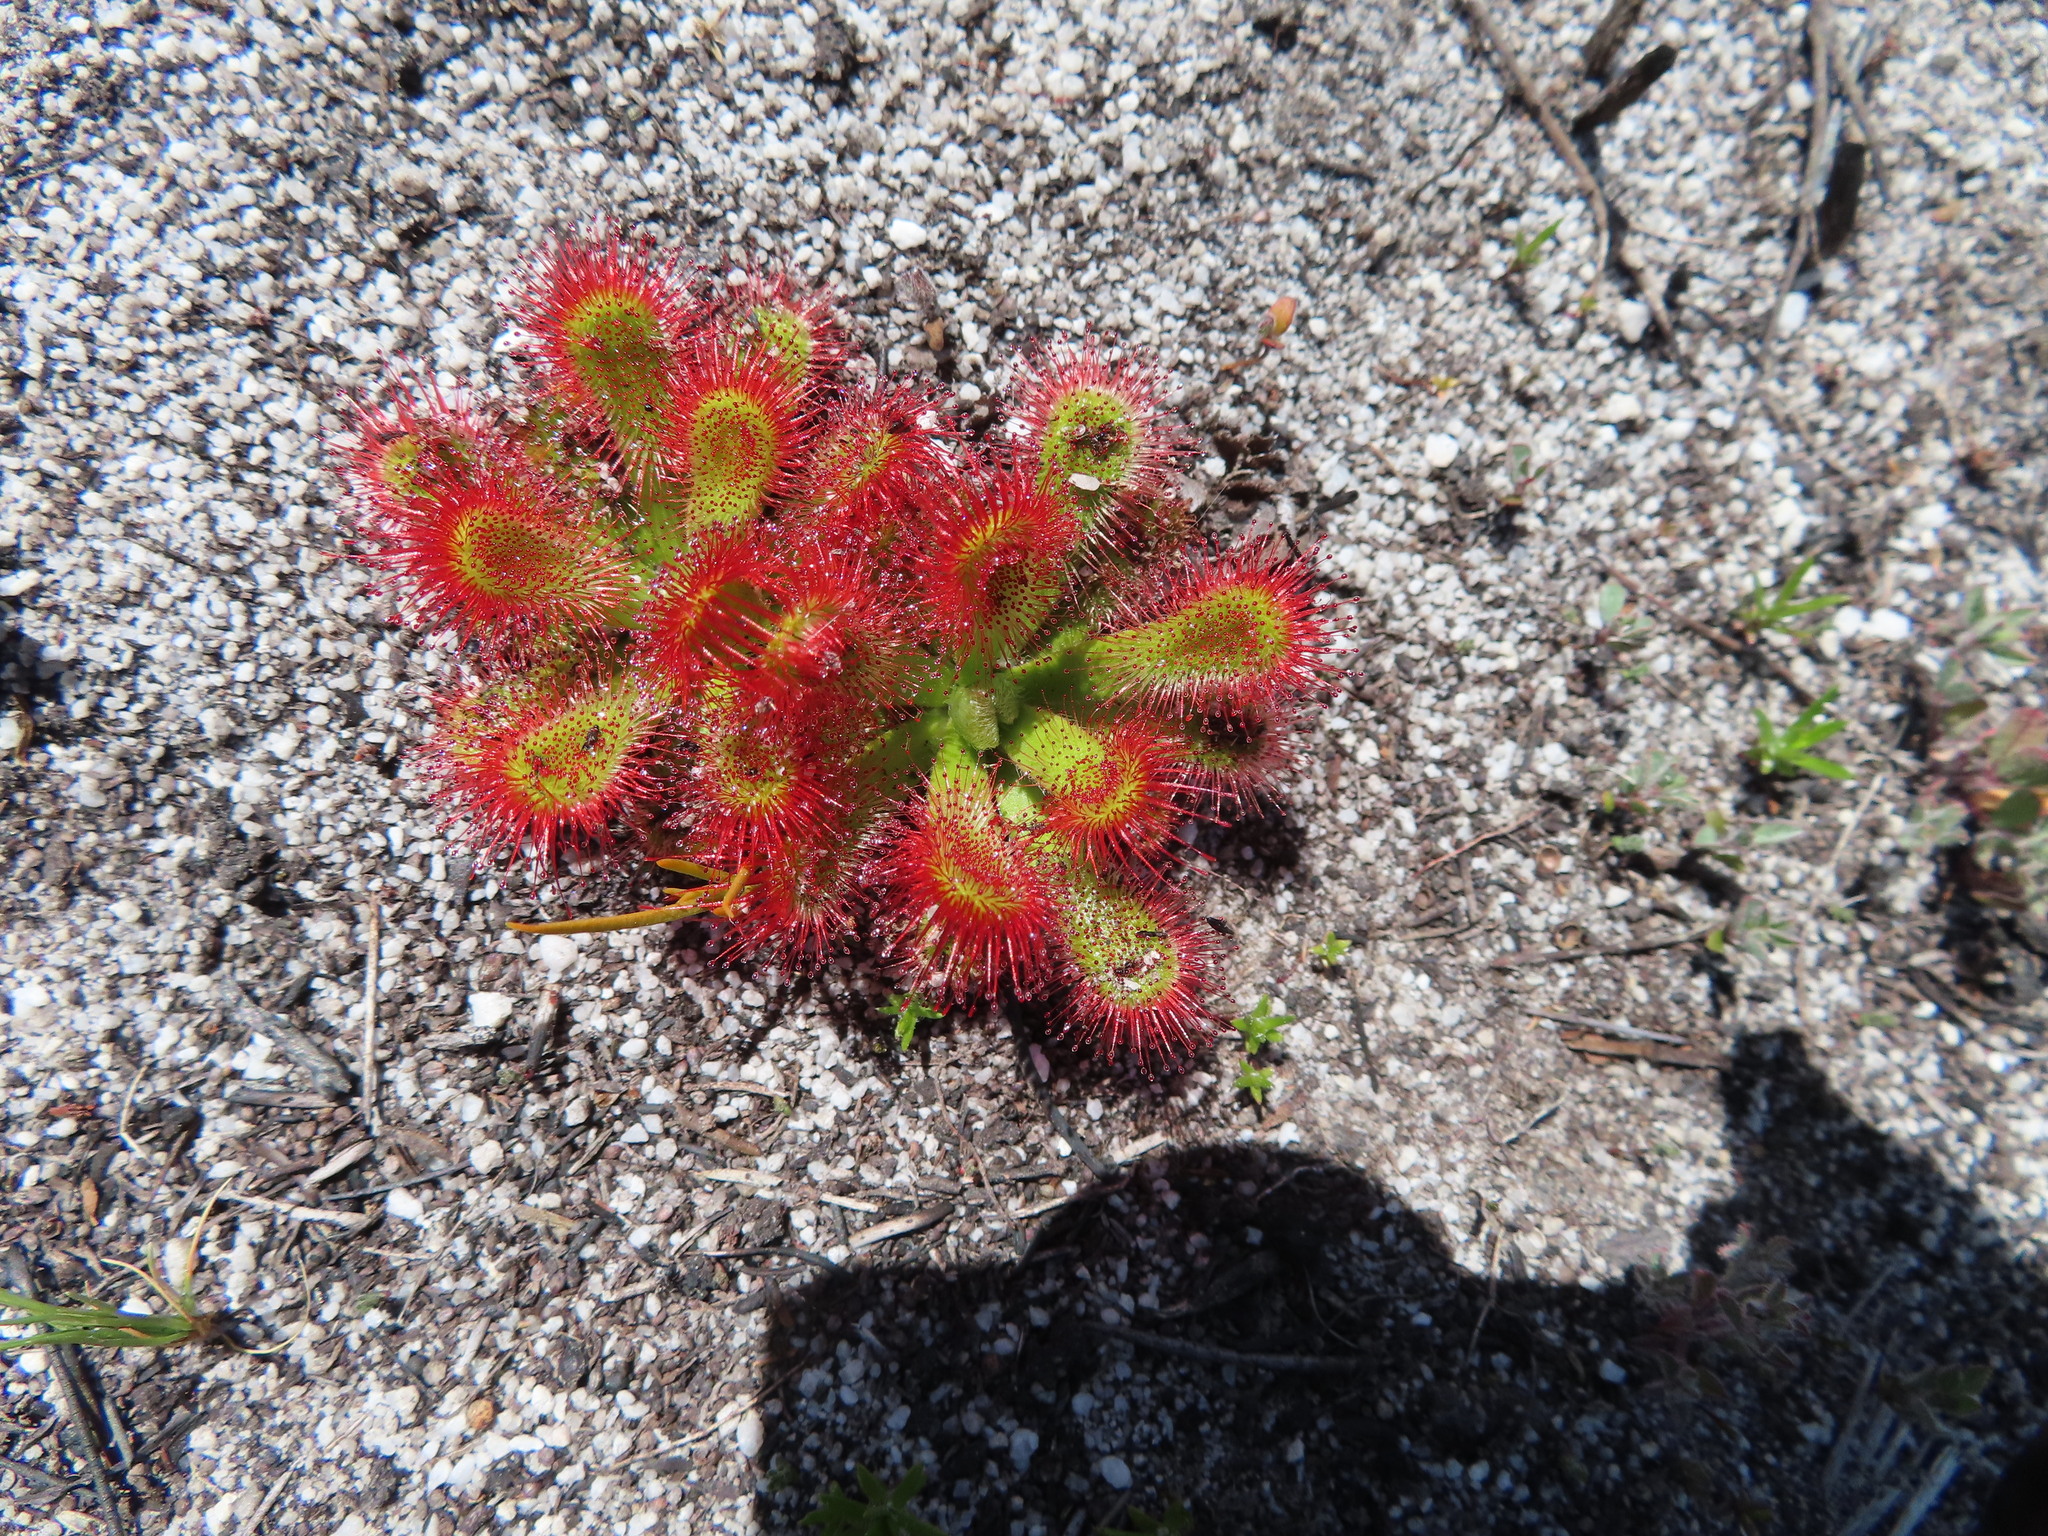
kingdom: Plantae
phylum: Tracheophyta
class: Magnoliopsida
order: Caryophyllales
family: Droseraceae
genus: Drosera
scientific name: Drosera aliciae
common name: Alice sundew
